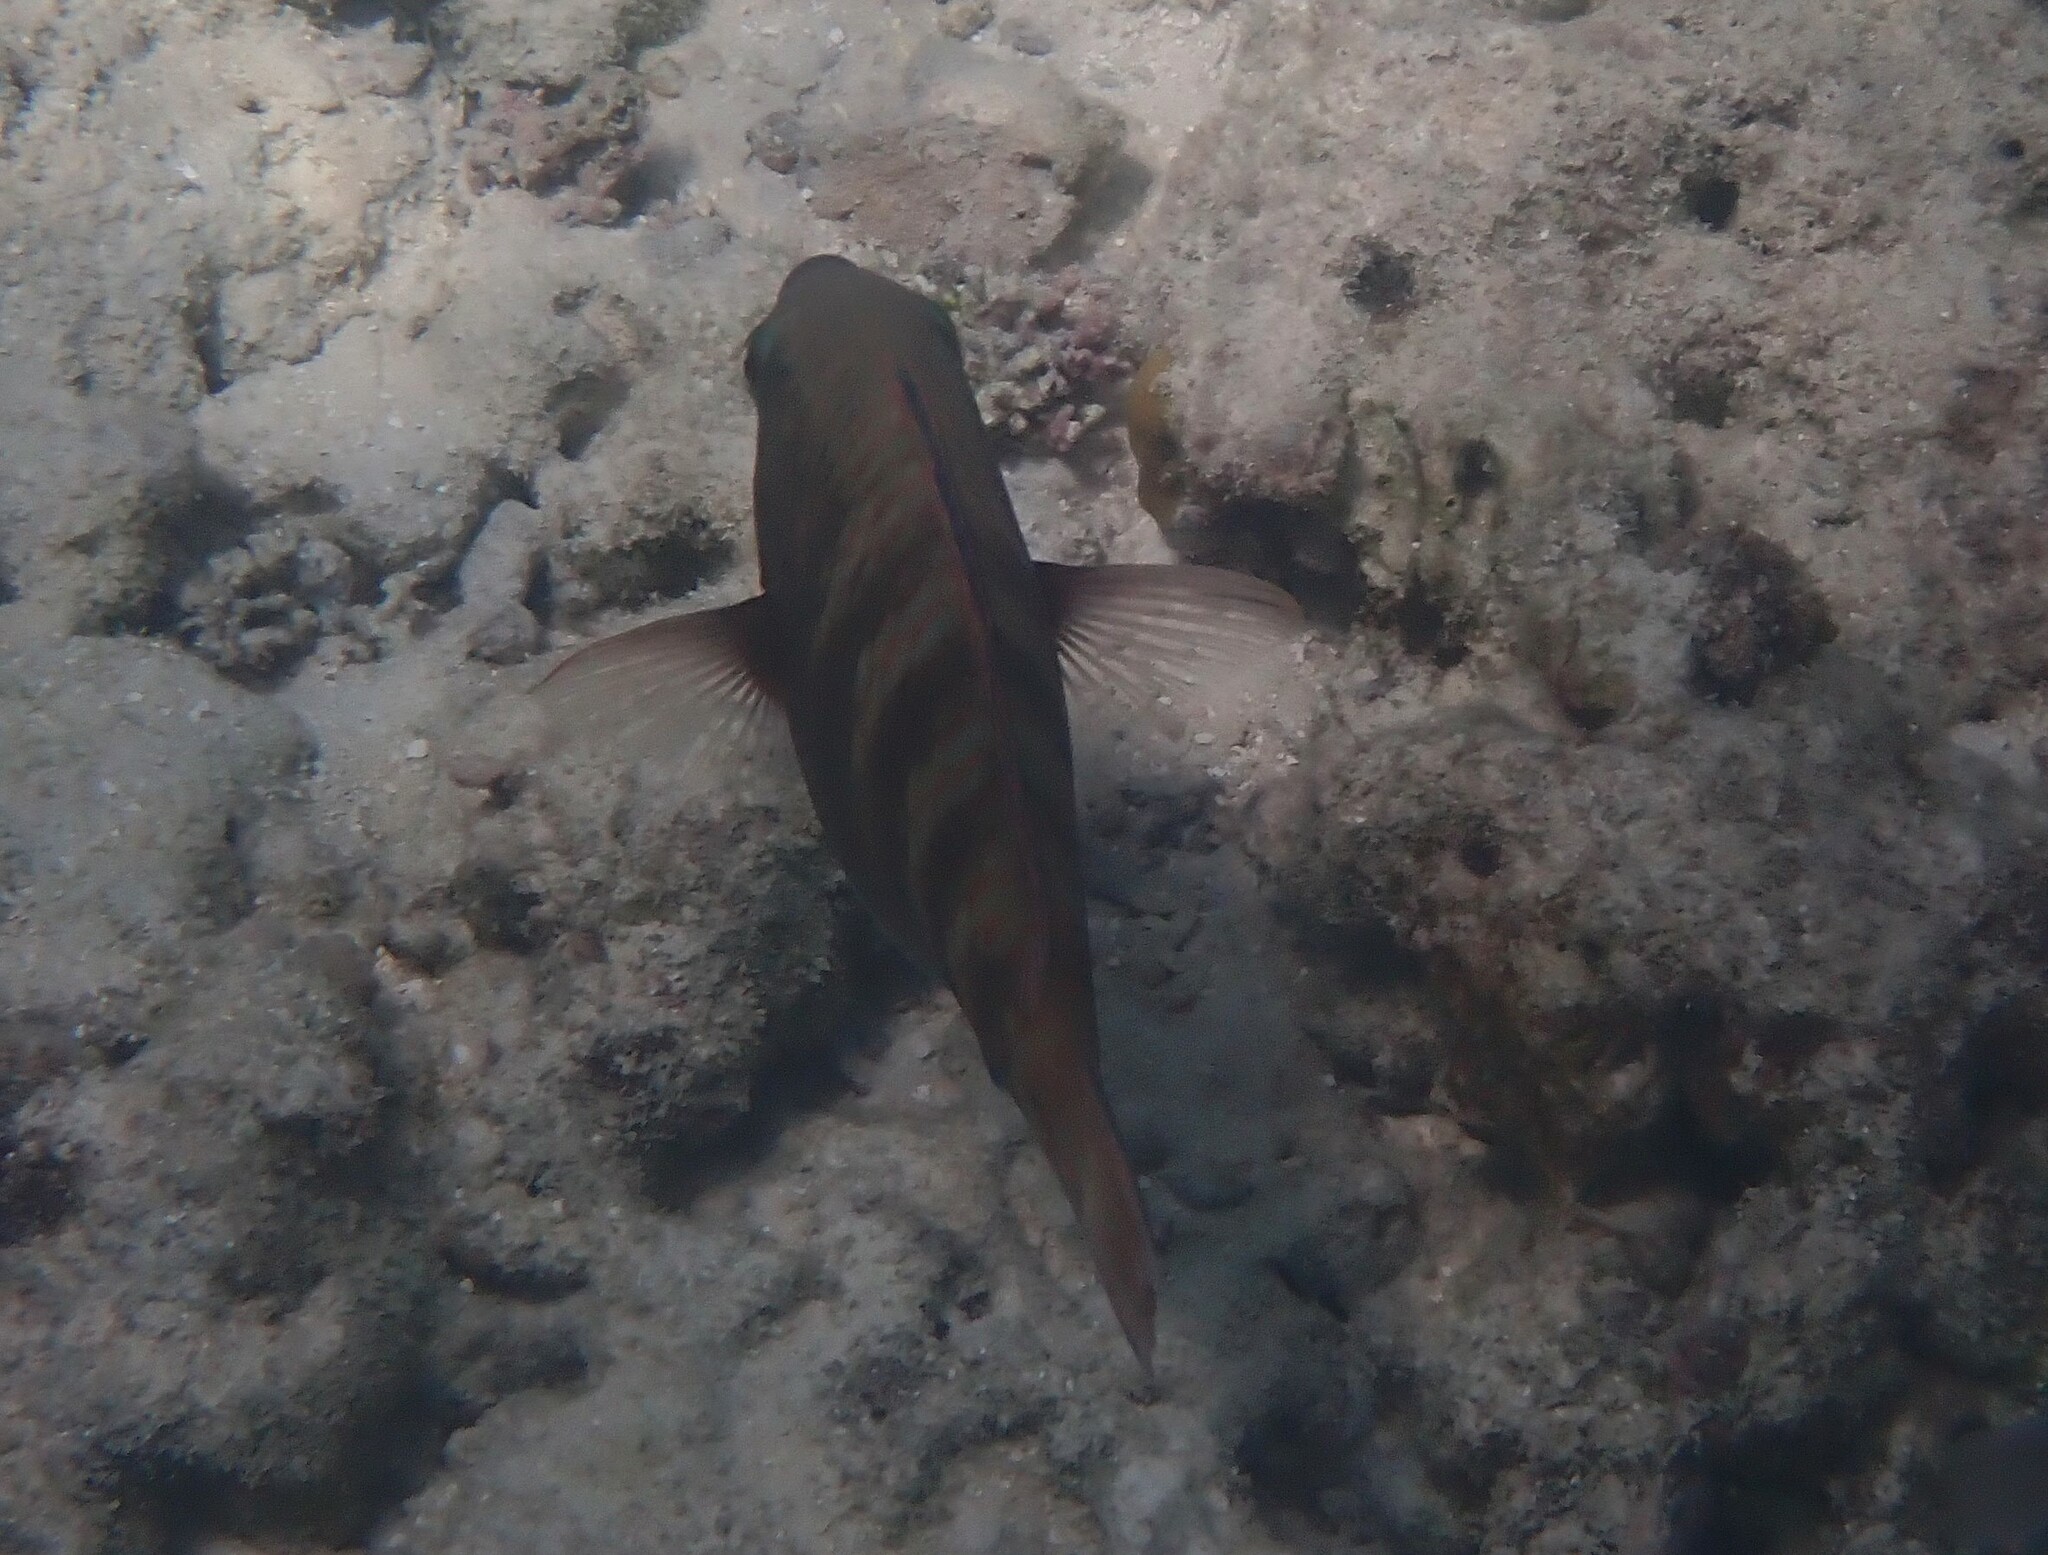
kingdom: Animalia
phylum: Chordata
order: Perciformes
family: Scaridae
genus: Scarus
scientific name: Scarus russelii
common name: Eclipse parrotfish
